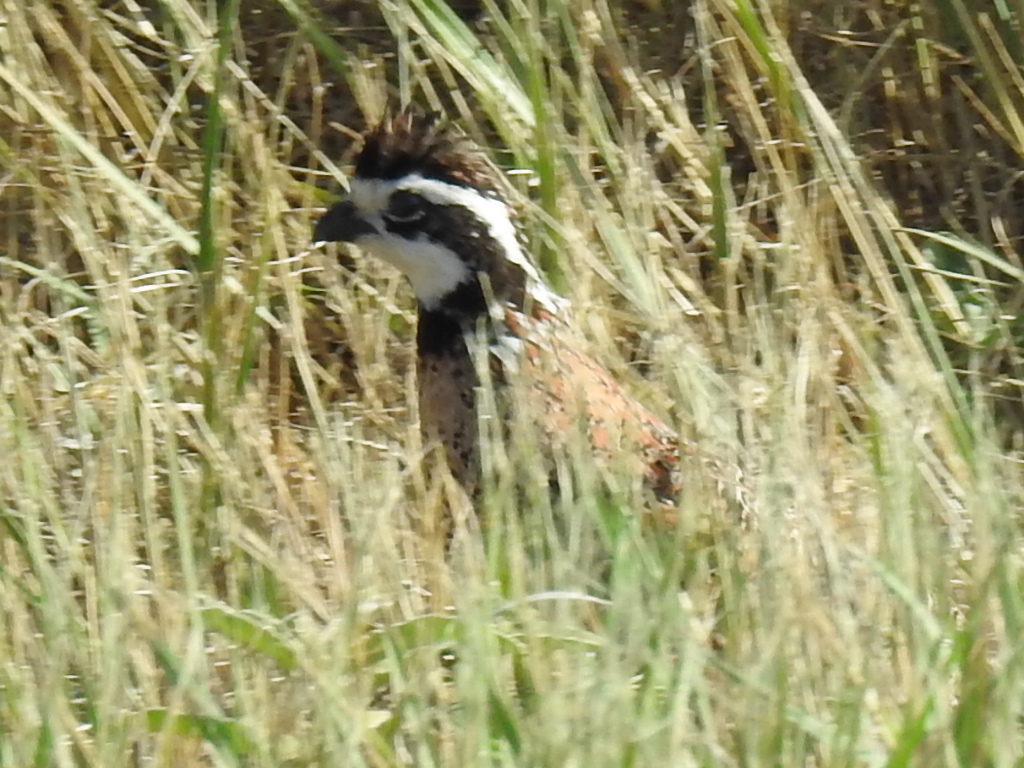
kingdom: Animalia
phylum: Chordata
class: Aves
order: Galliformes
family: Odontophoridae
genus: Colinus
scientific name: Colinus virginianus
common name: Northern bobwhite
